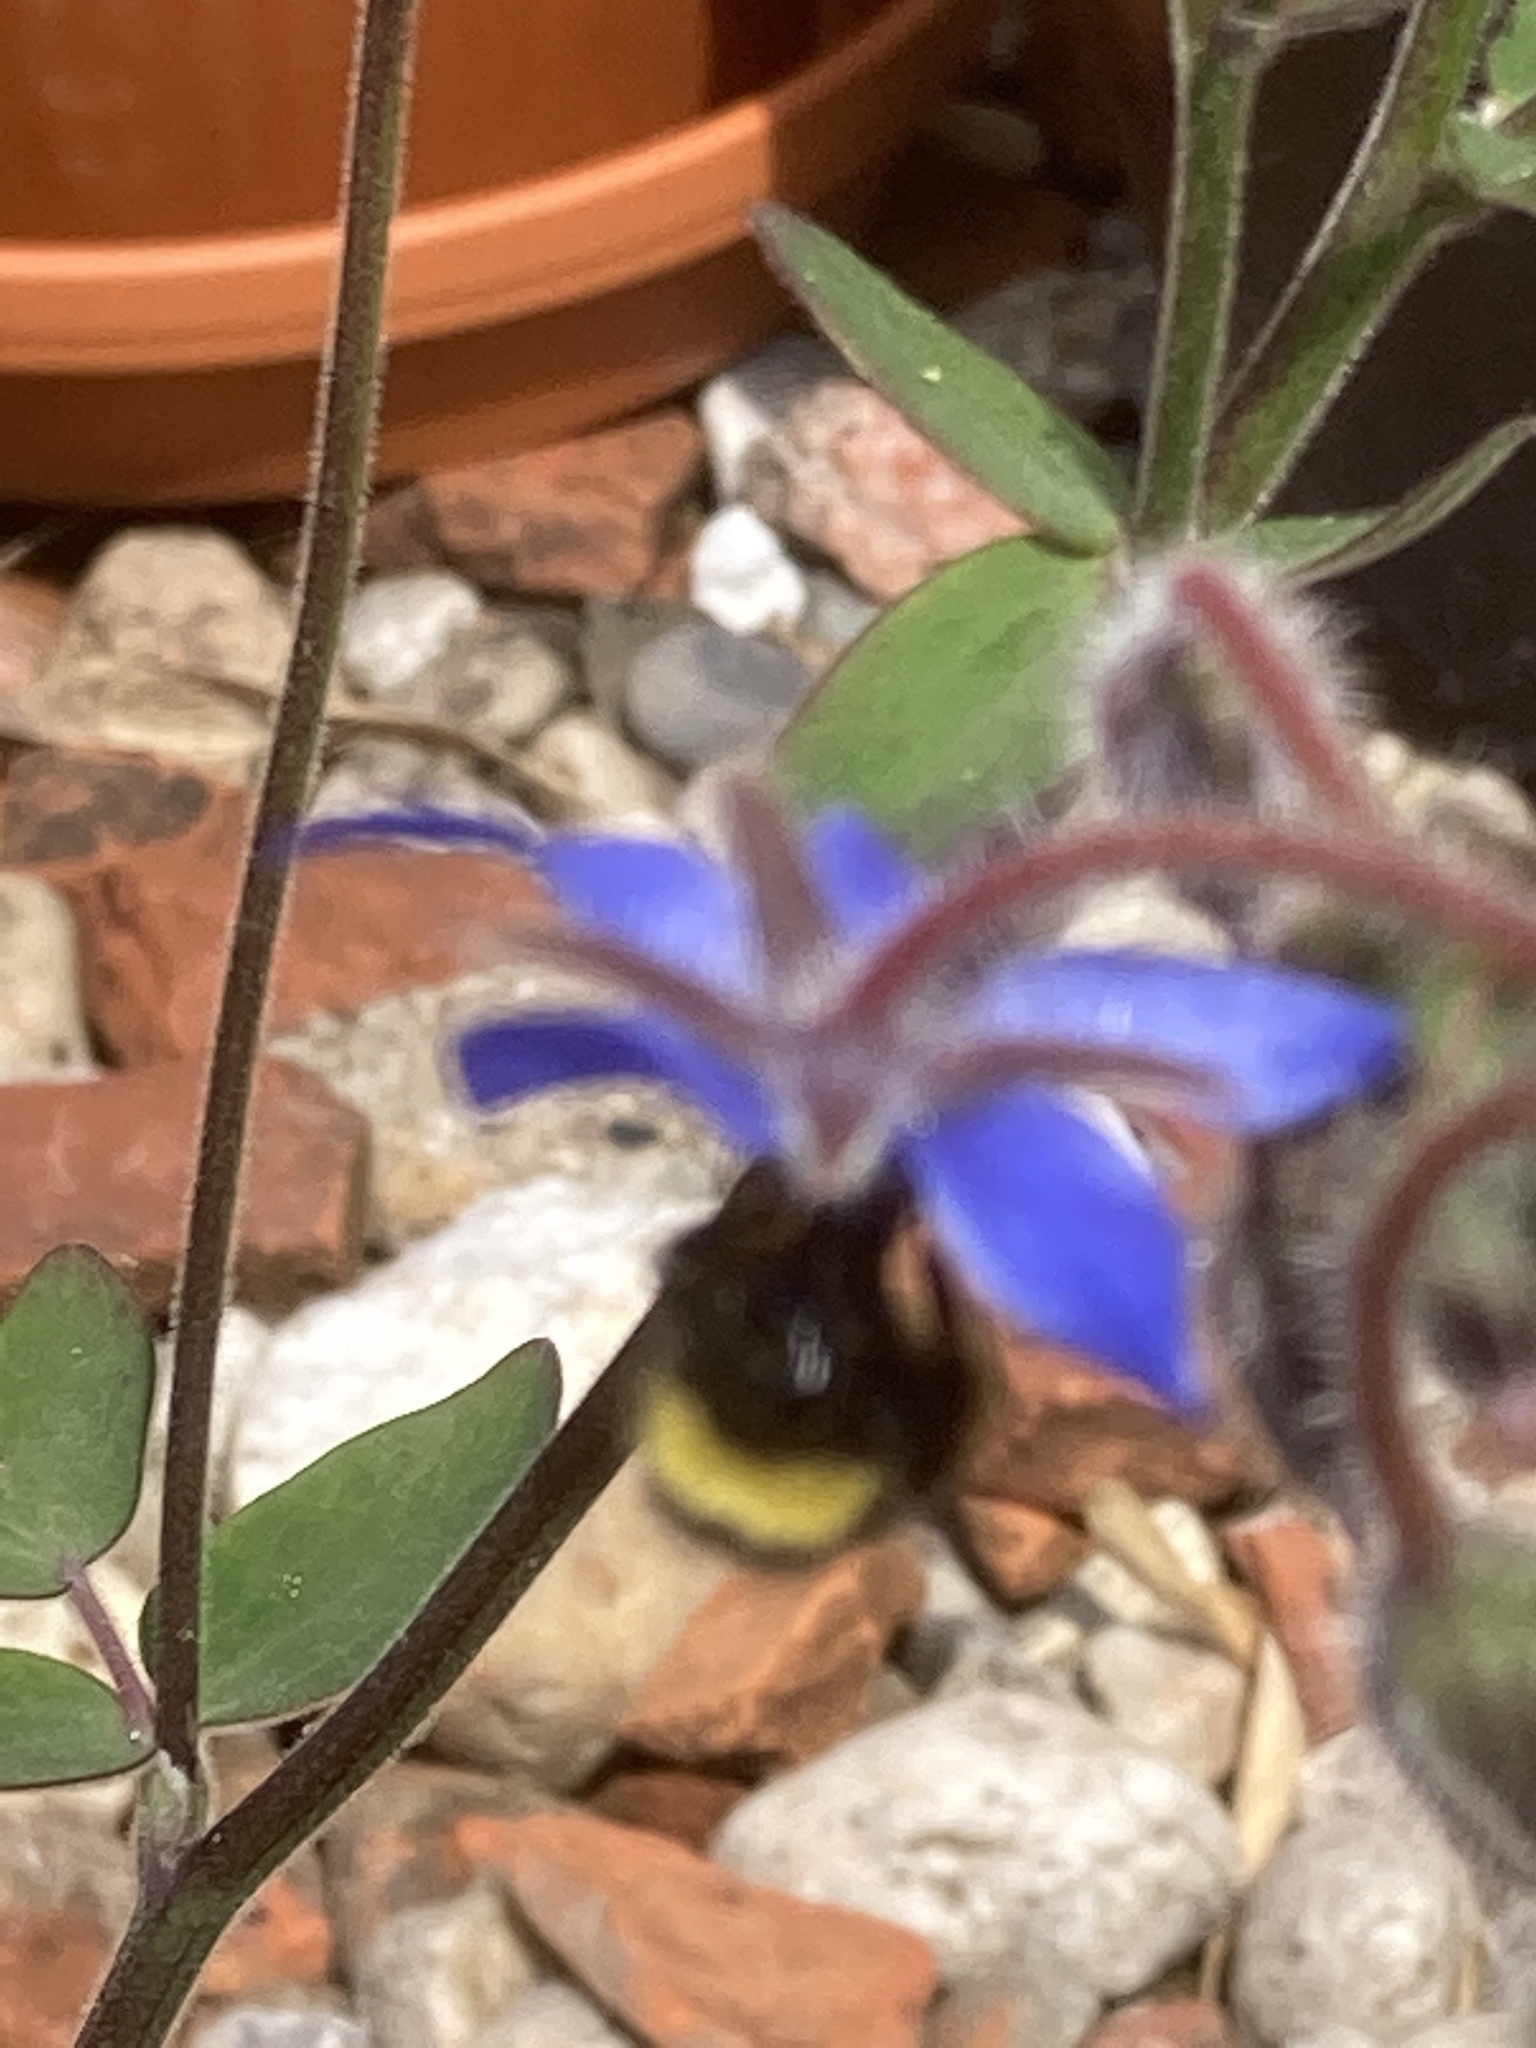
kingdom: Animalia
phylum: Arthropoda
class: Insecta
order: Hymenoptera
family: Apidae
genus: Bombus
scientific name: Bombus pratorum
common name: Early humble-bee
